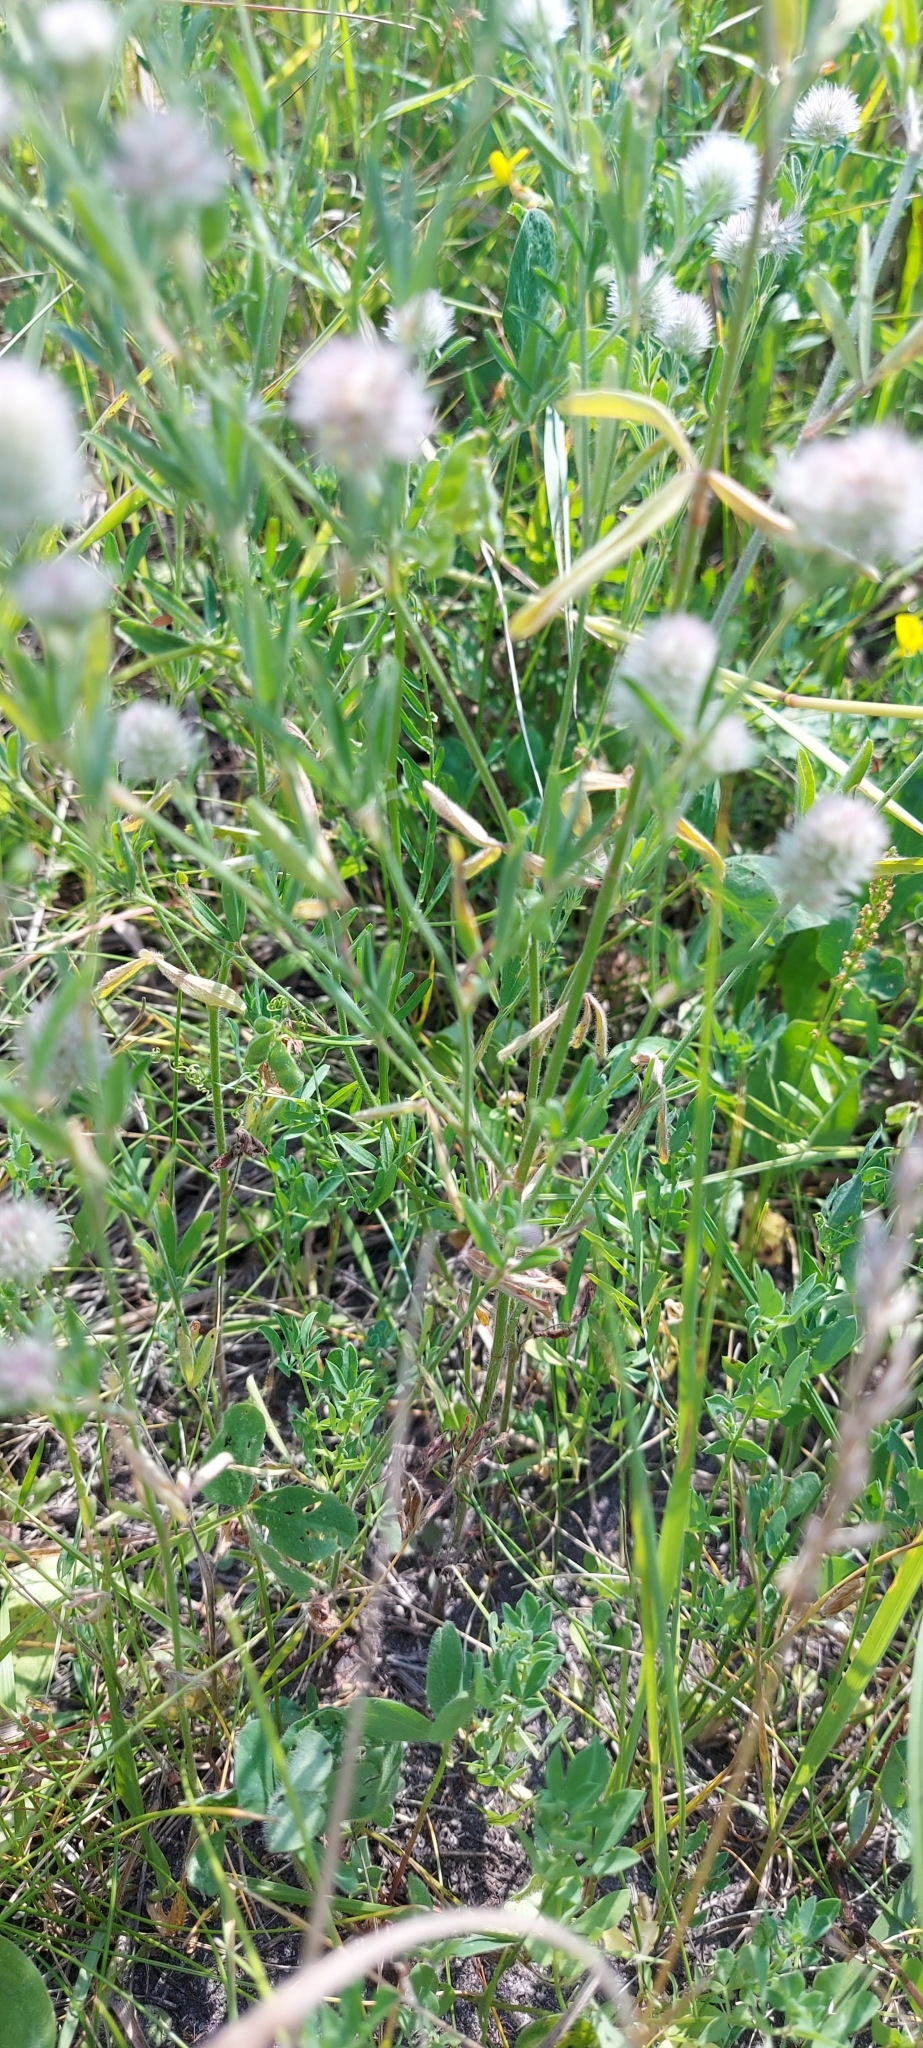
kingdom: Plantae
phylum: Tracheophyta
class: Magnoliopsida
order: Fabales
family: Fabaceae
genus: Trifolium
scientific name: Trifolium arvense
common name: Hare's-foot clover
